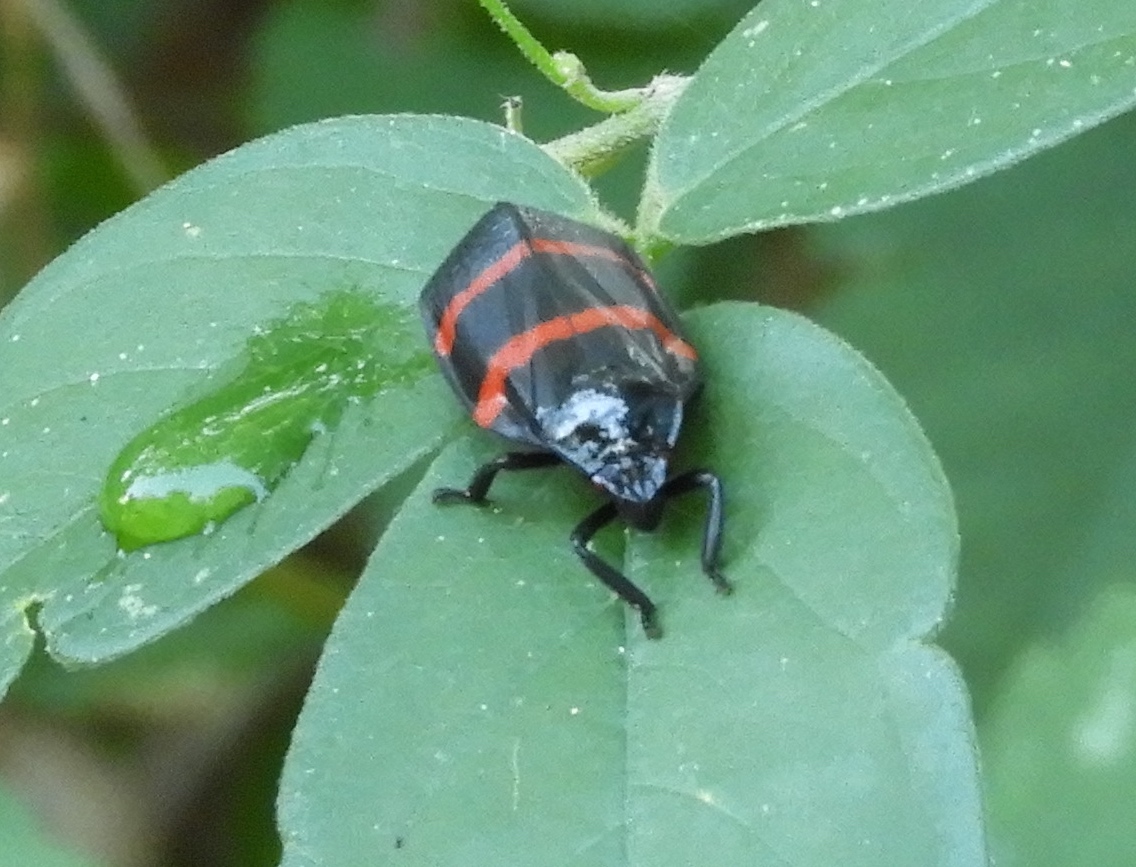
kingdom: Animalia
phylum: Arthropoda
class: Insecta
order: Hemiptera
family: Cercopidae
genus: Huaina
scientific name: Huaina inca
